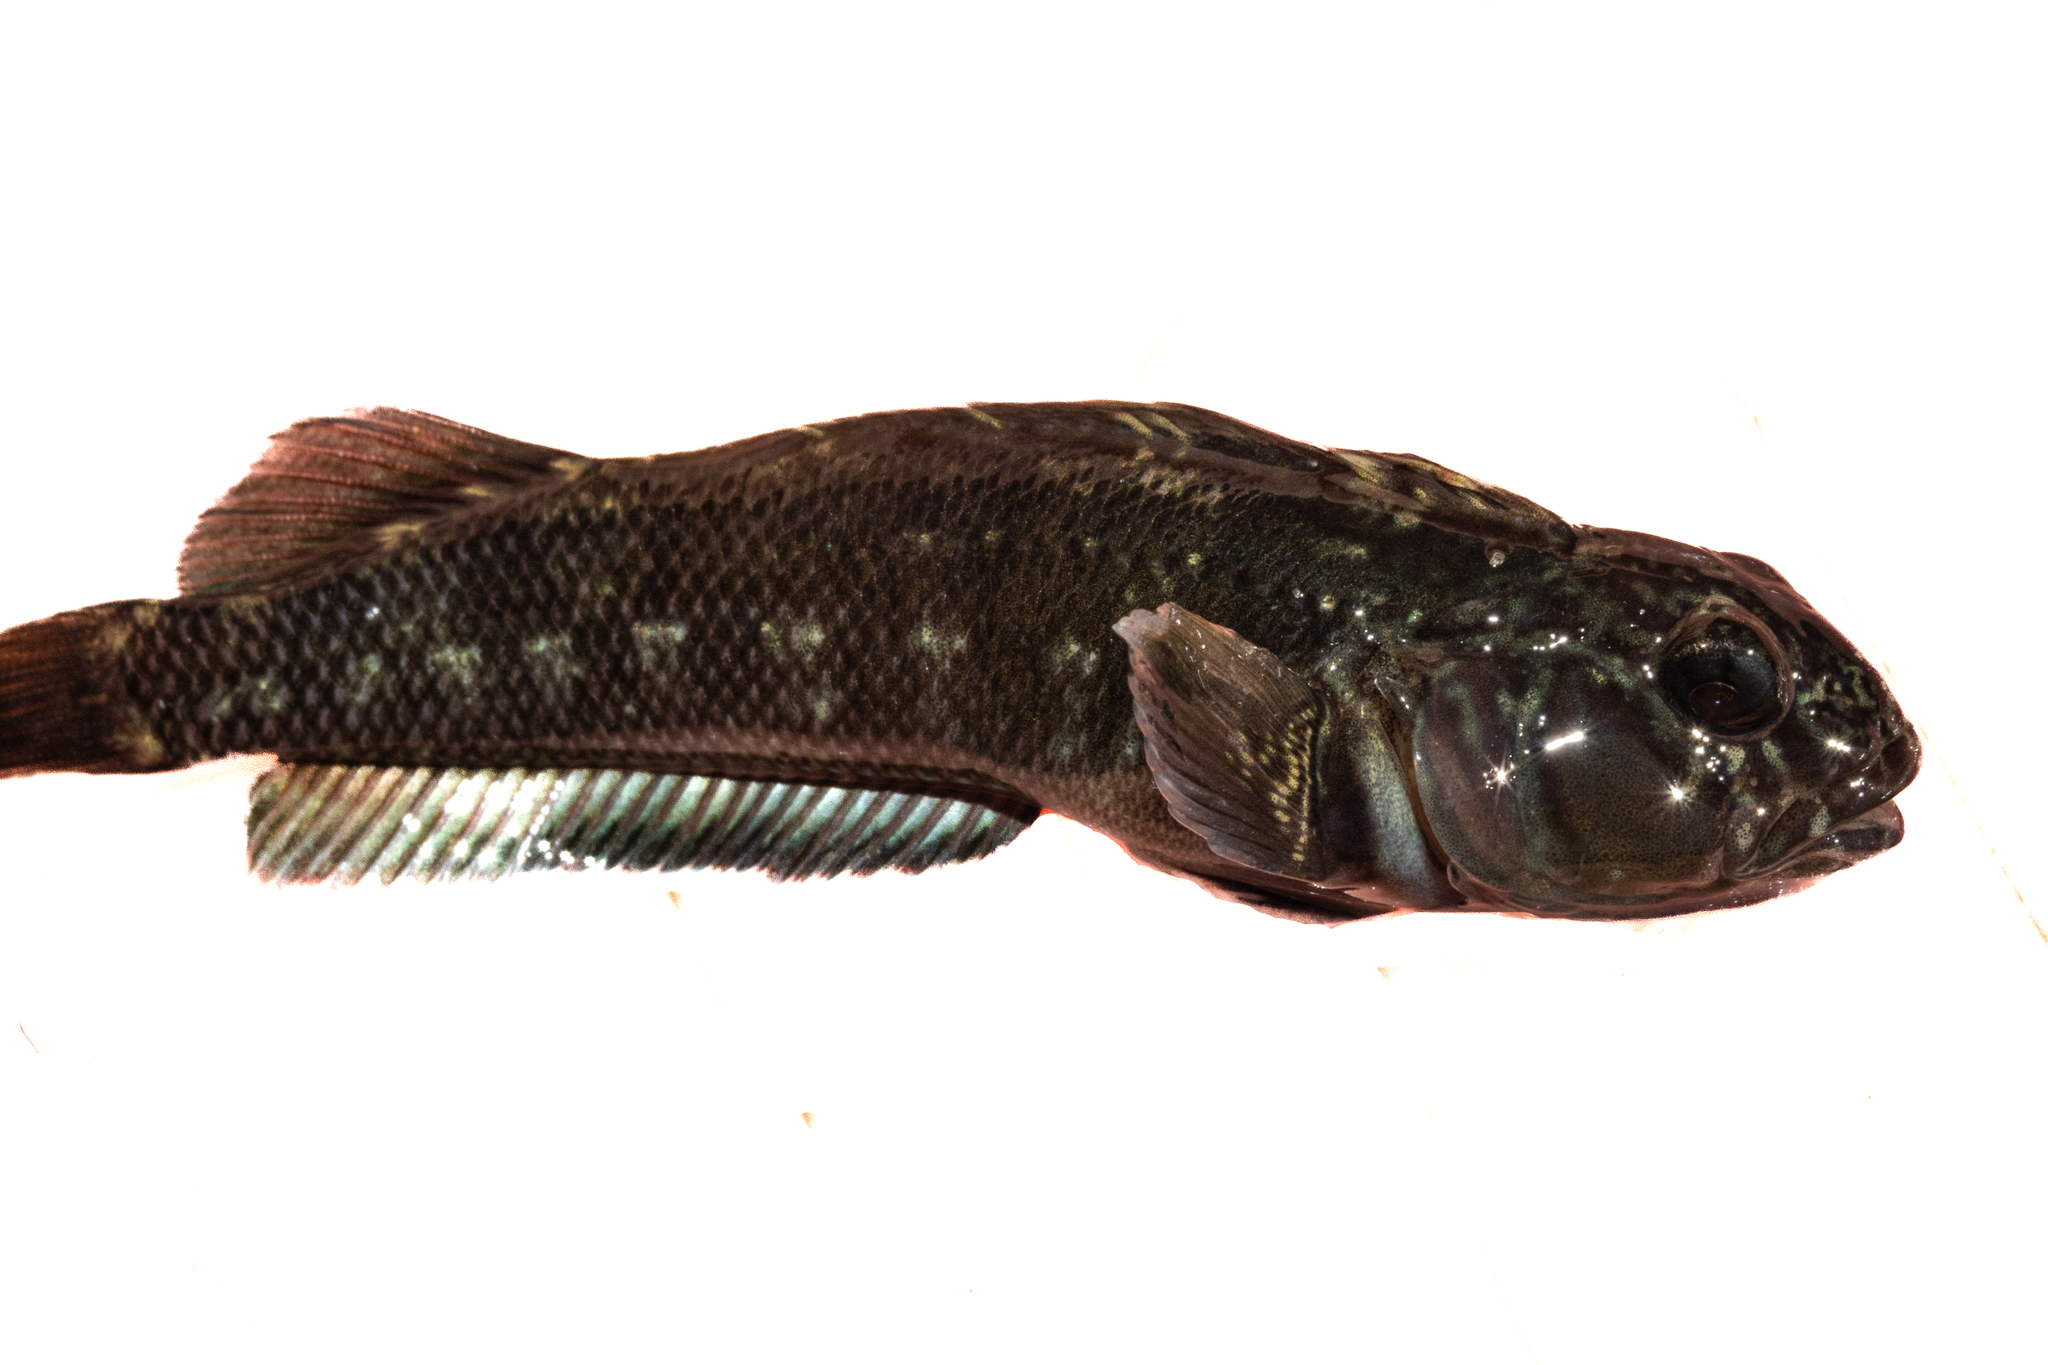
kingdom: Animalia
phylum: Chordata
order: Perciformes
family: Tripterygiidae
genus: Forsterygion
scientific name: Forsterygion gymnotum
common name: Multifid-tentacled robust triplefin
